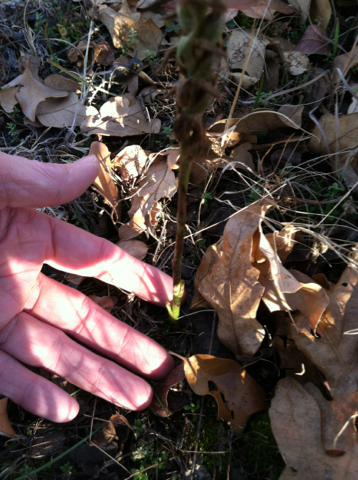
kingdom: Plantae
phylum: Tracheophyta
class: Liliopsida
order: Asparagales
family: Orchidaceae
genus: Spiranthes
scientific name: Spiranthes cernua
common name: Dropping ladies'-tresses
